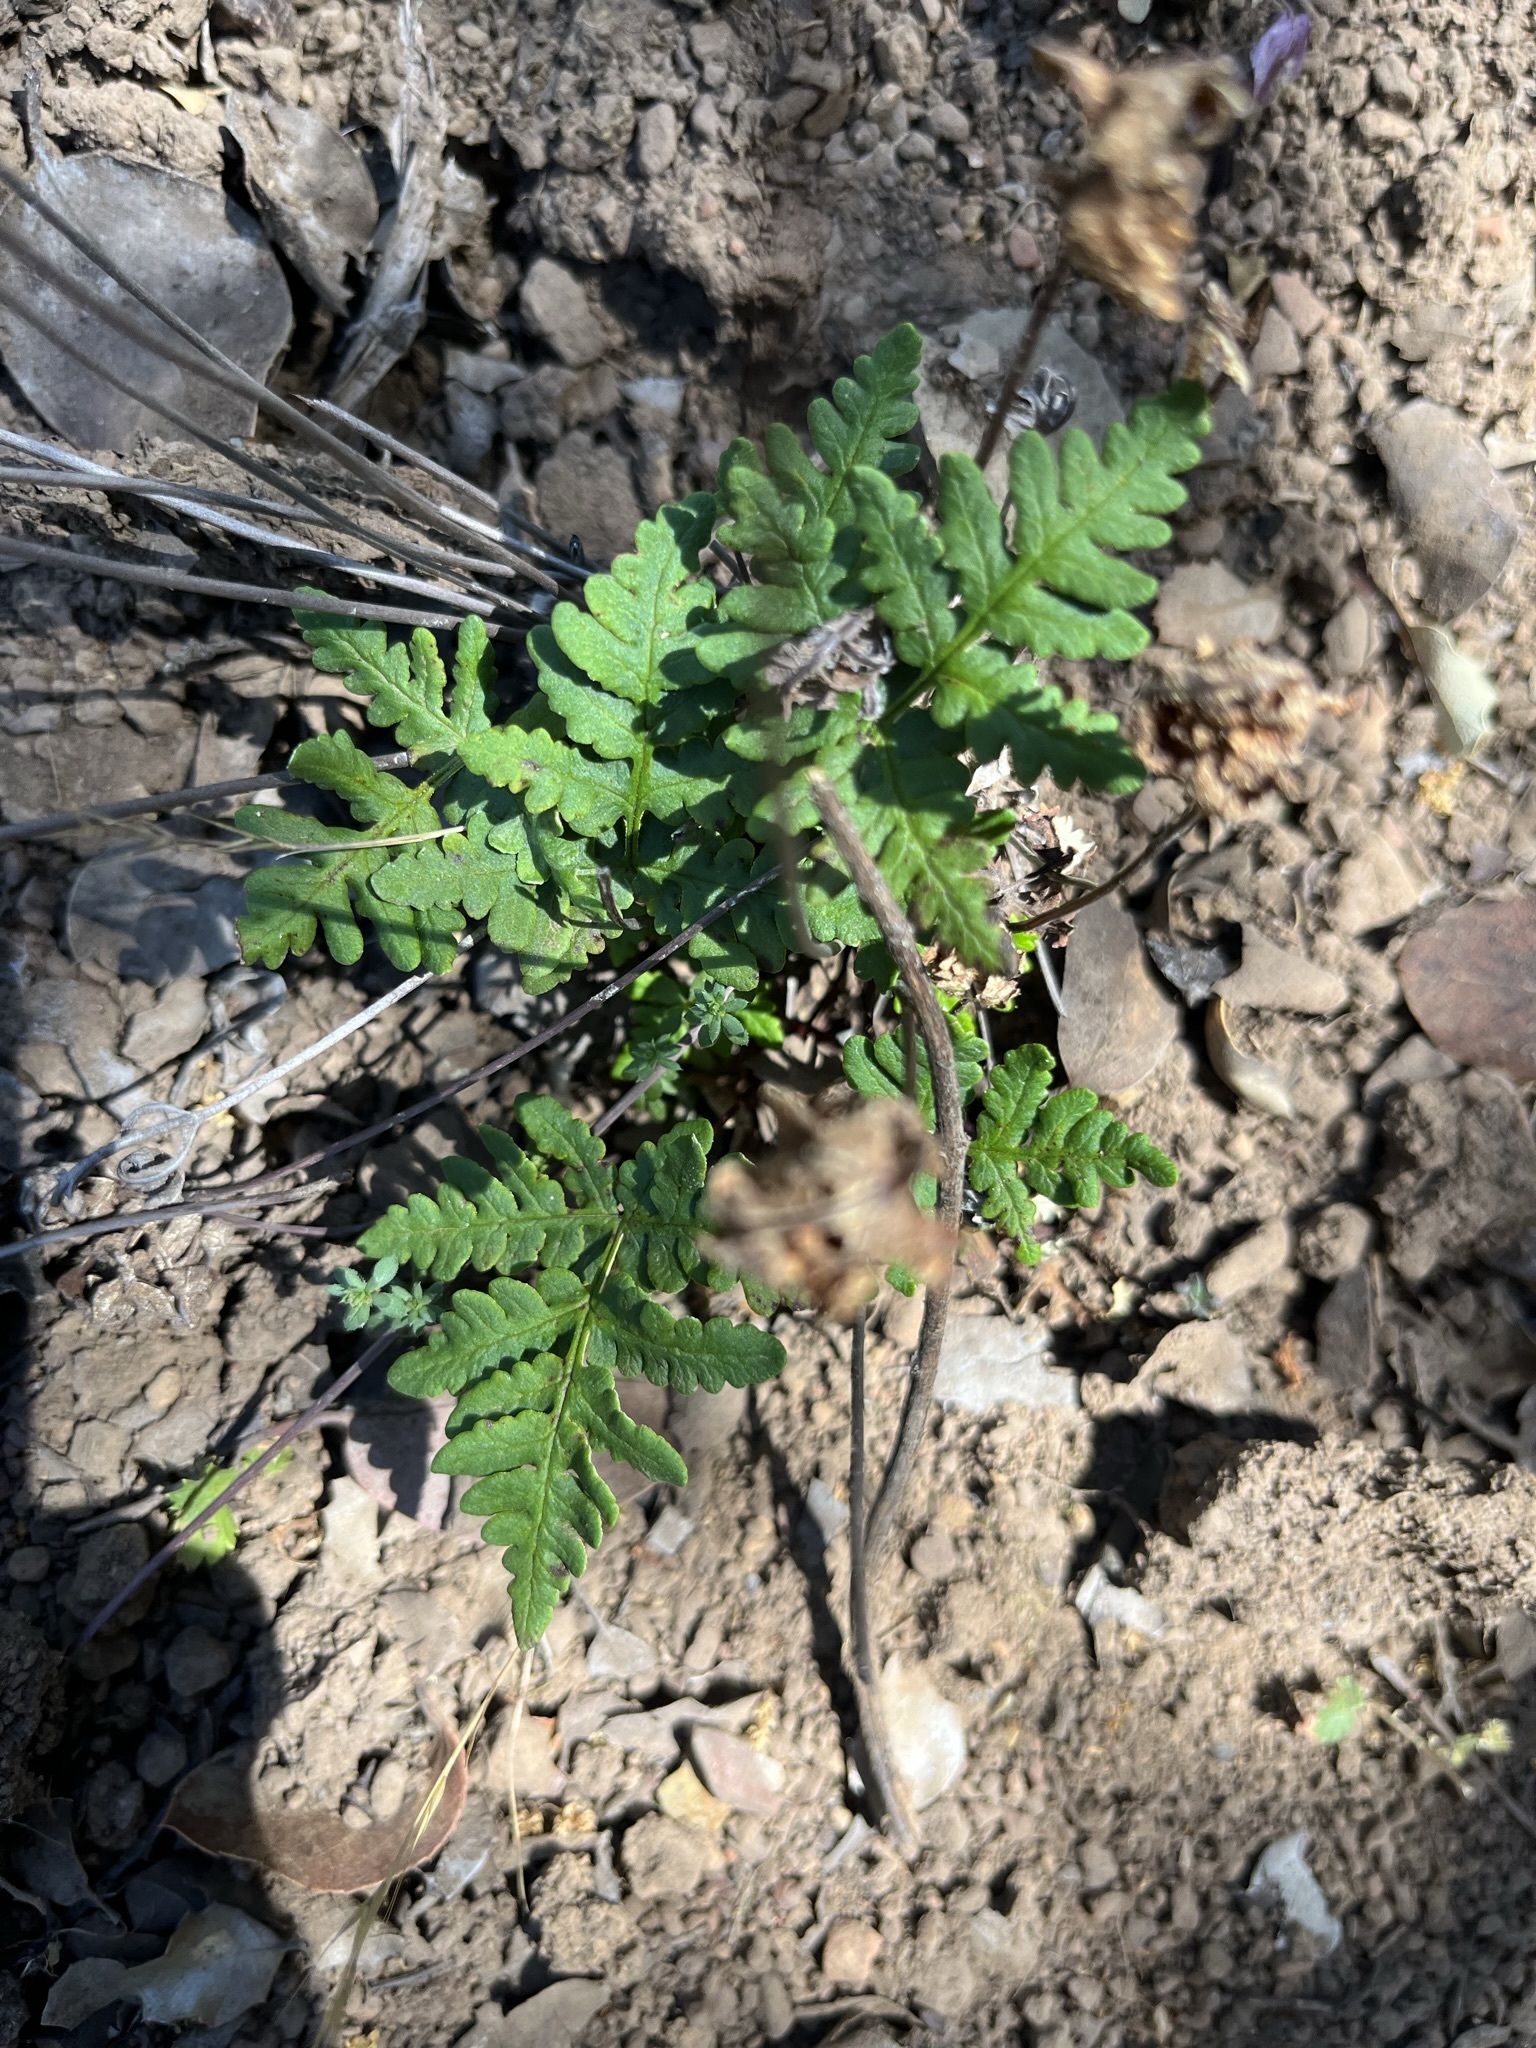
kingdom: Plantae
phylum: Tracheophyta
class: Polypodiopsida
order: Polypodiales
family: Pteridaceae
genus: Pentagramma
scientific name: Pentagramma triangularis
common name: Gold fern
